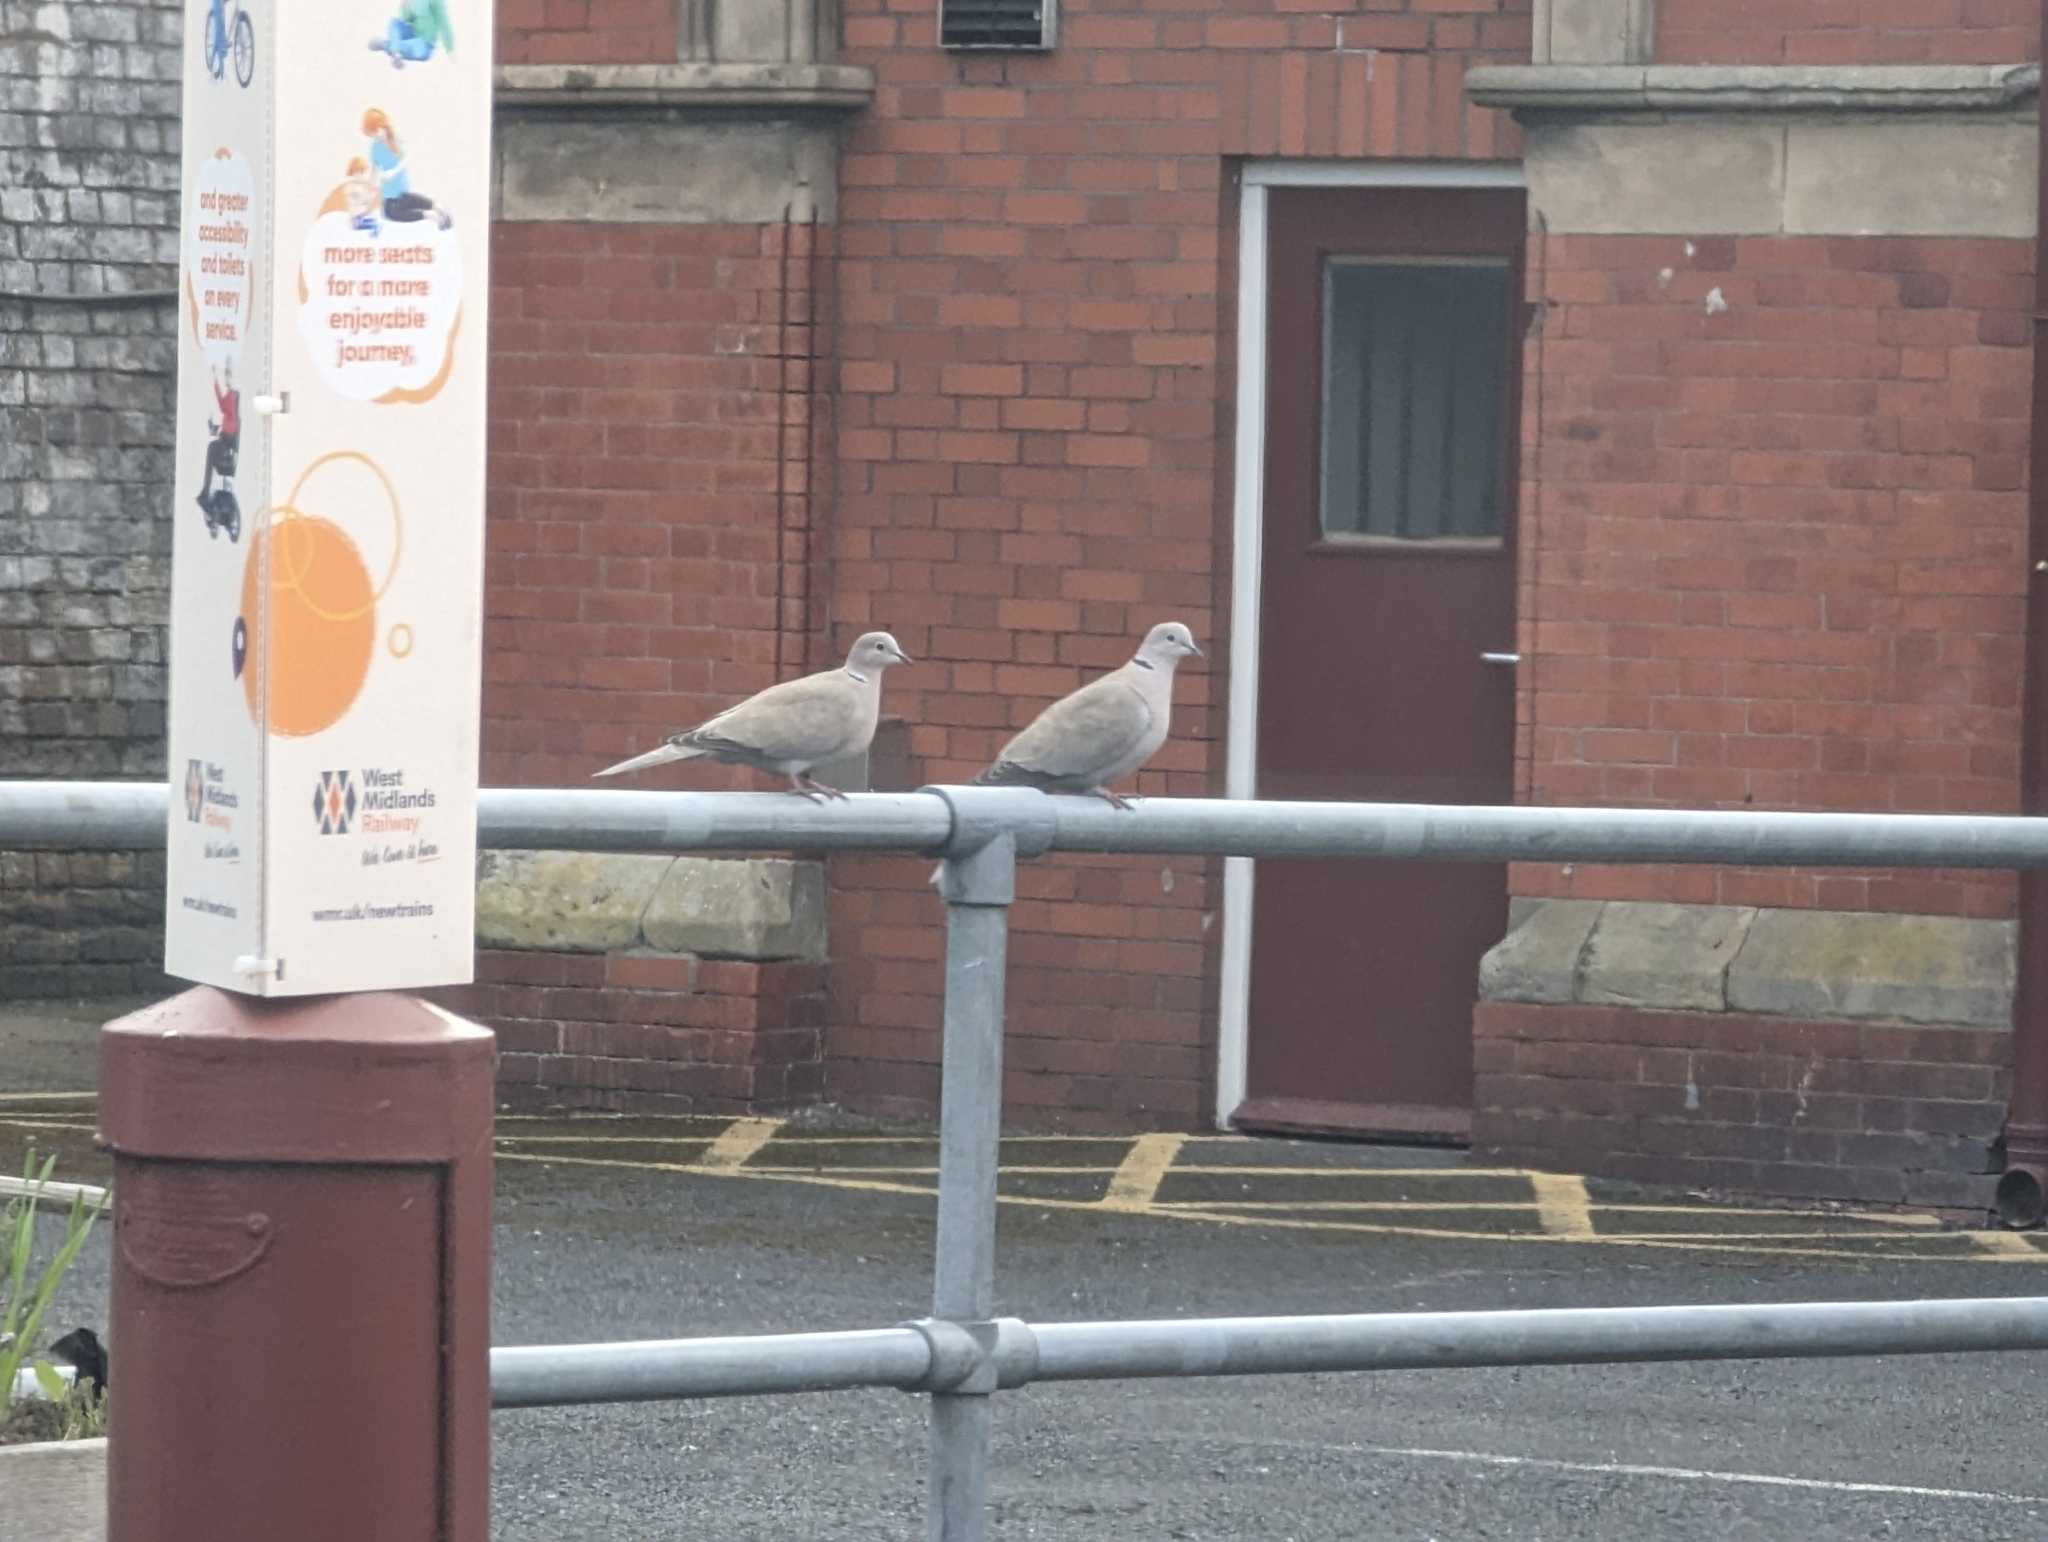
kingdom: Animalia
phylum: Chordata
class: Aves
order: Columbiformes
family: Columbidae
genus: Streptopelia
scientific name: Streptopelia decaocto
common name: Eurasian collared dove
